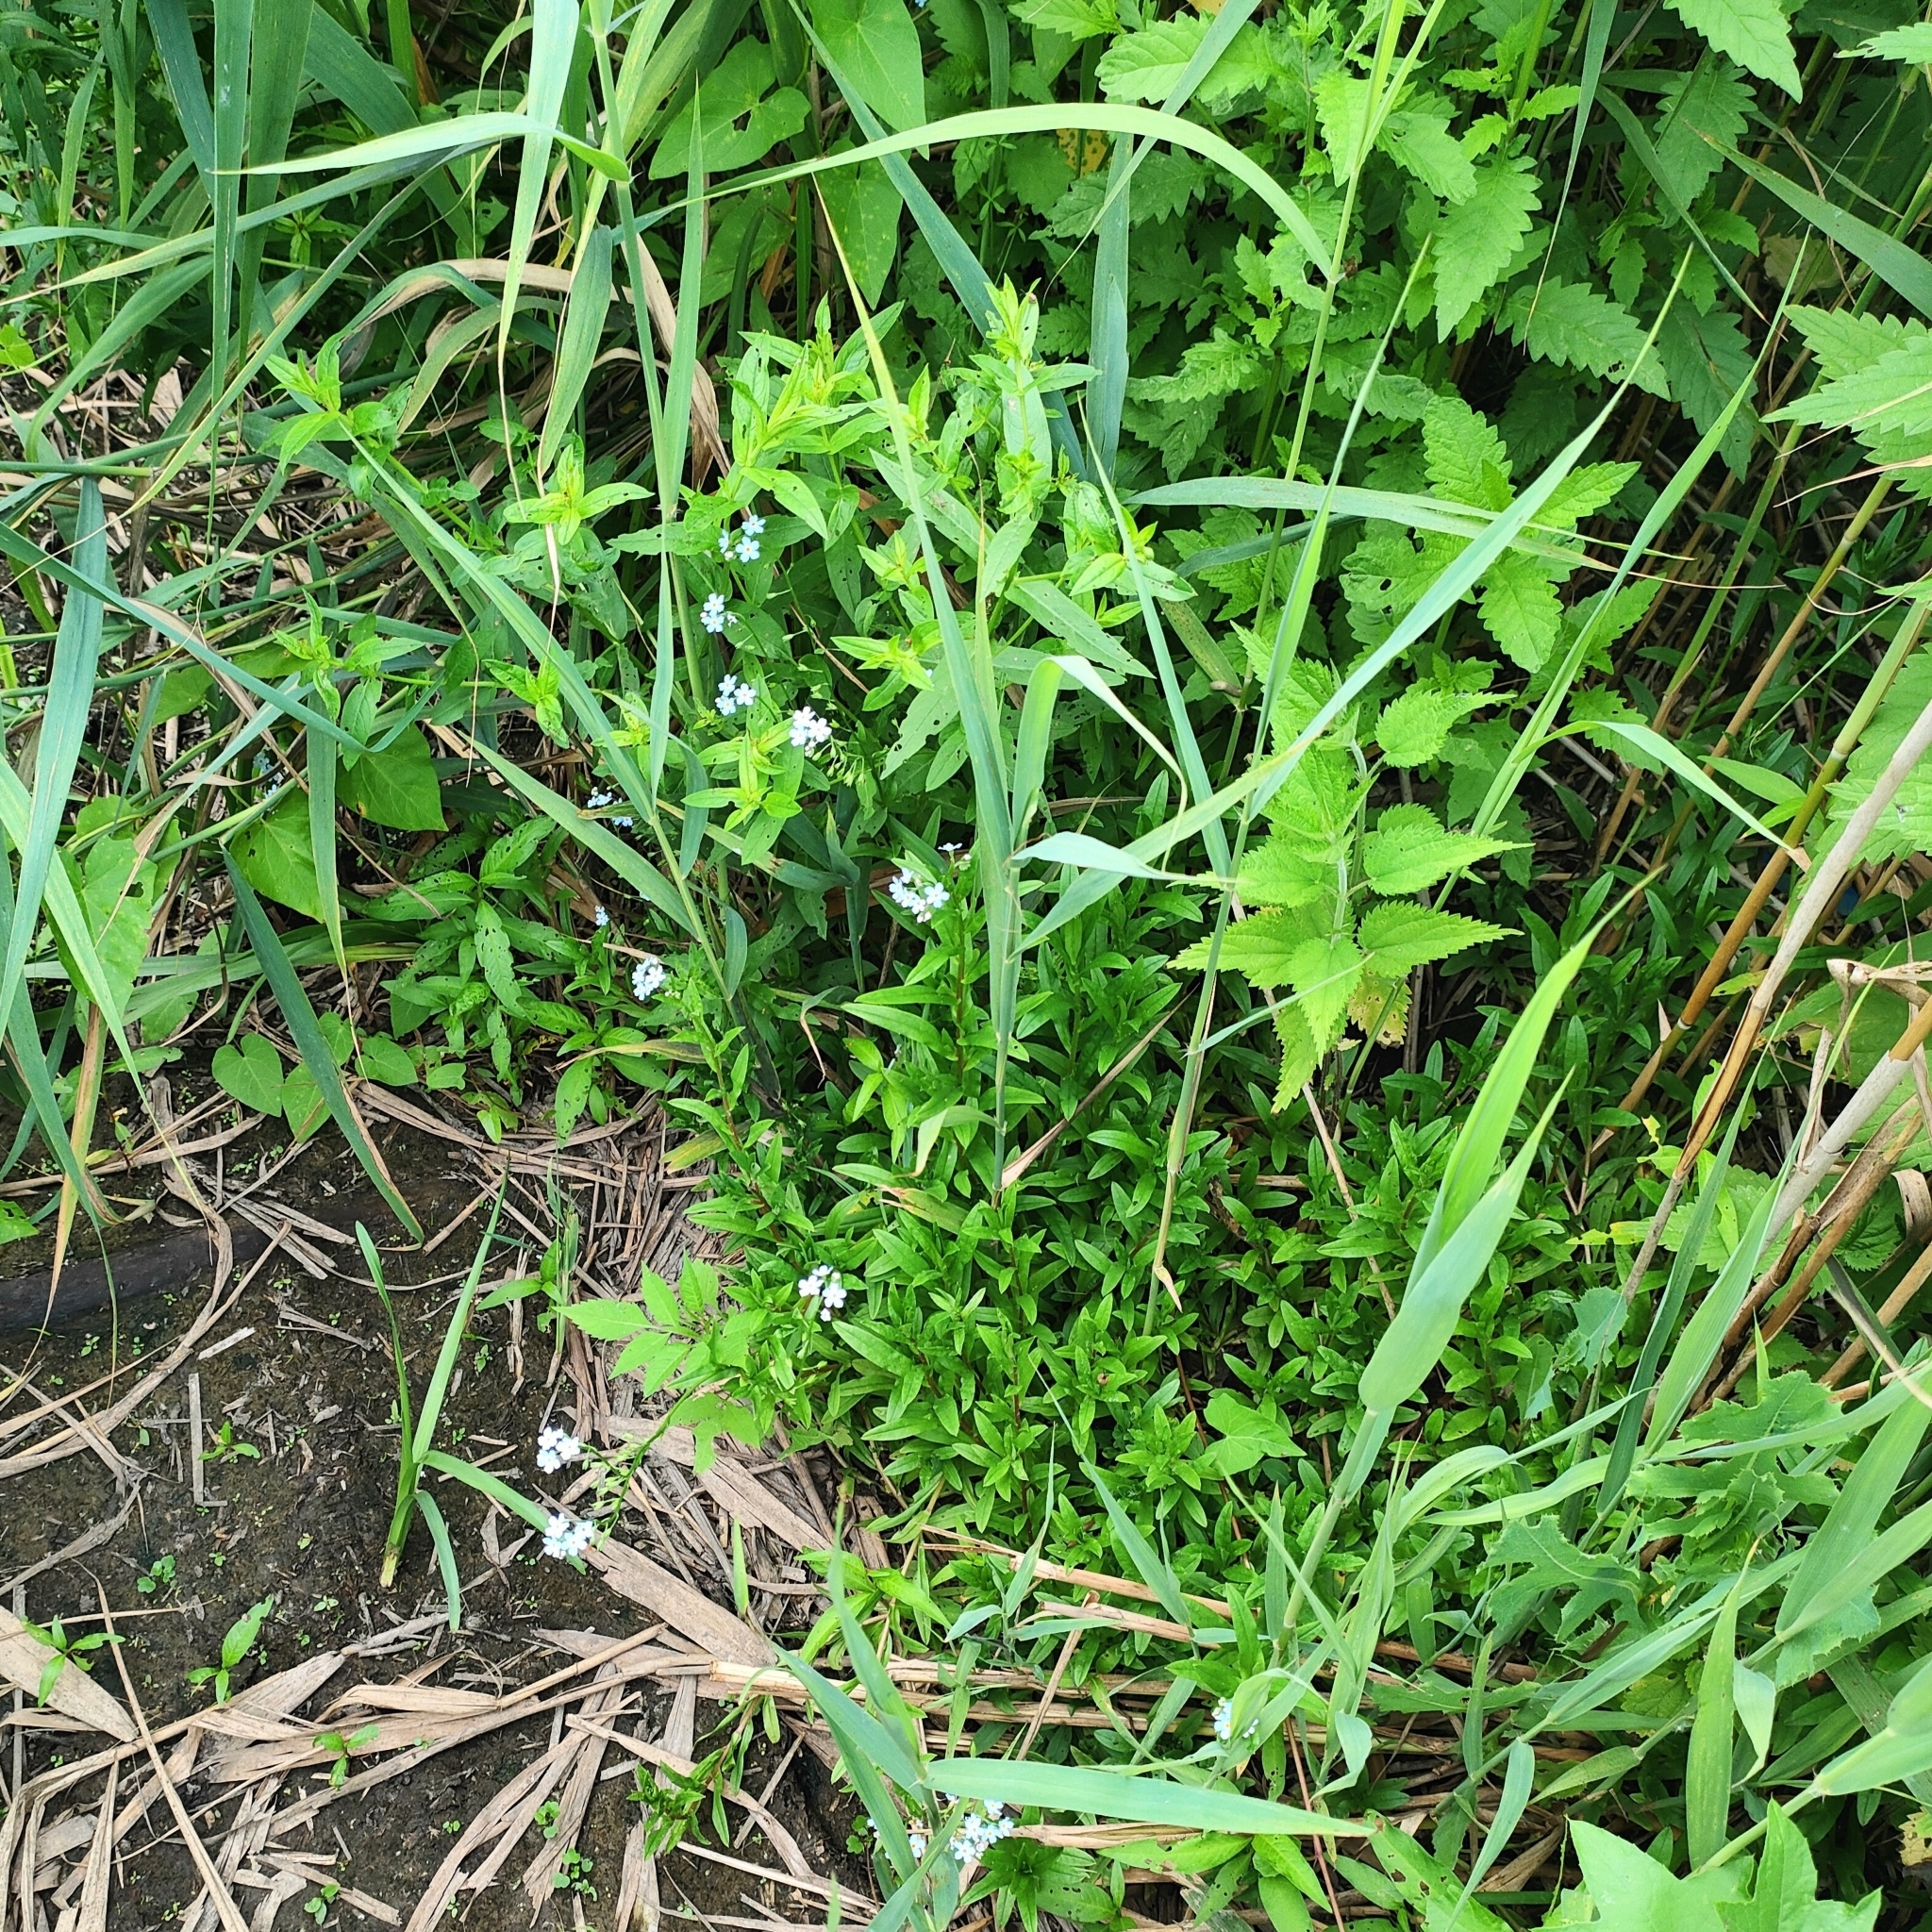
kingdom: Plantae
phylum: Tracheophyta
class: Magnoliopsida
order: Boraginales
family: Boraginaceae
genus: Myosotis
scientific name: Myosotis scorpioides
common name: Water forget-me-not
